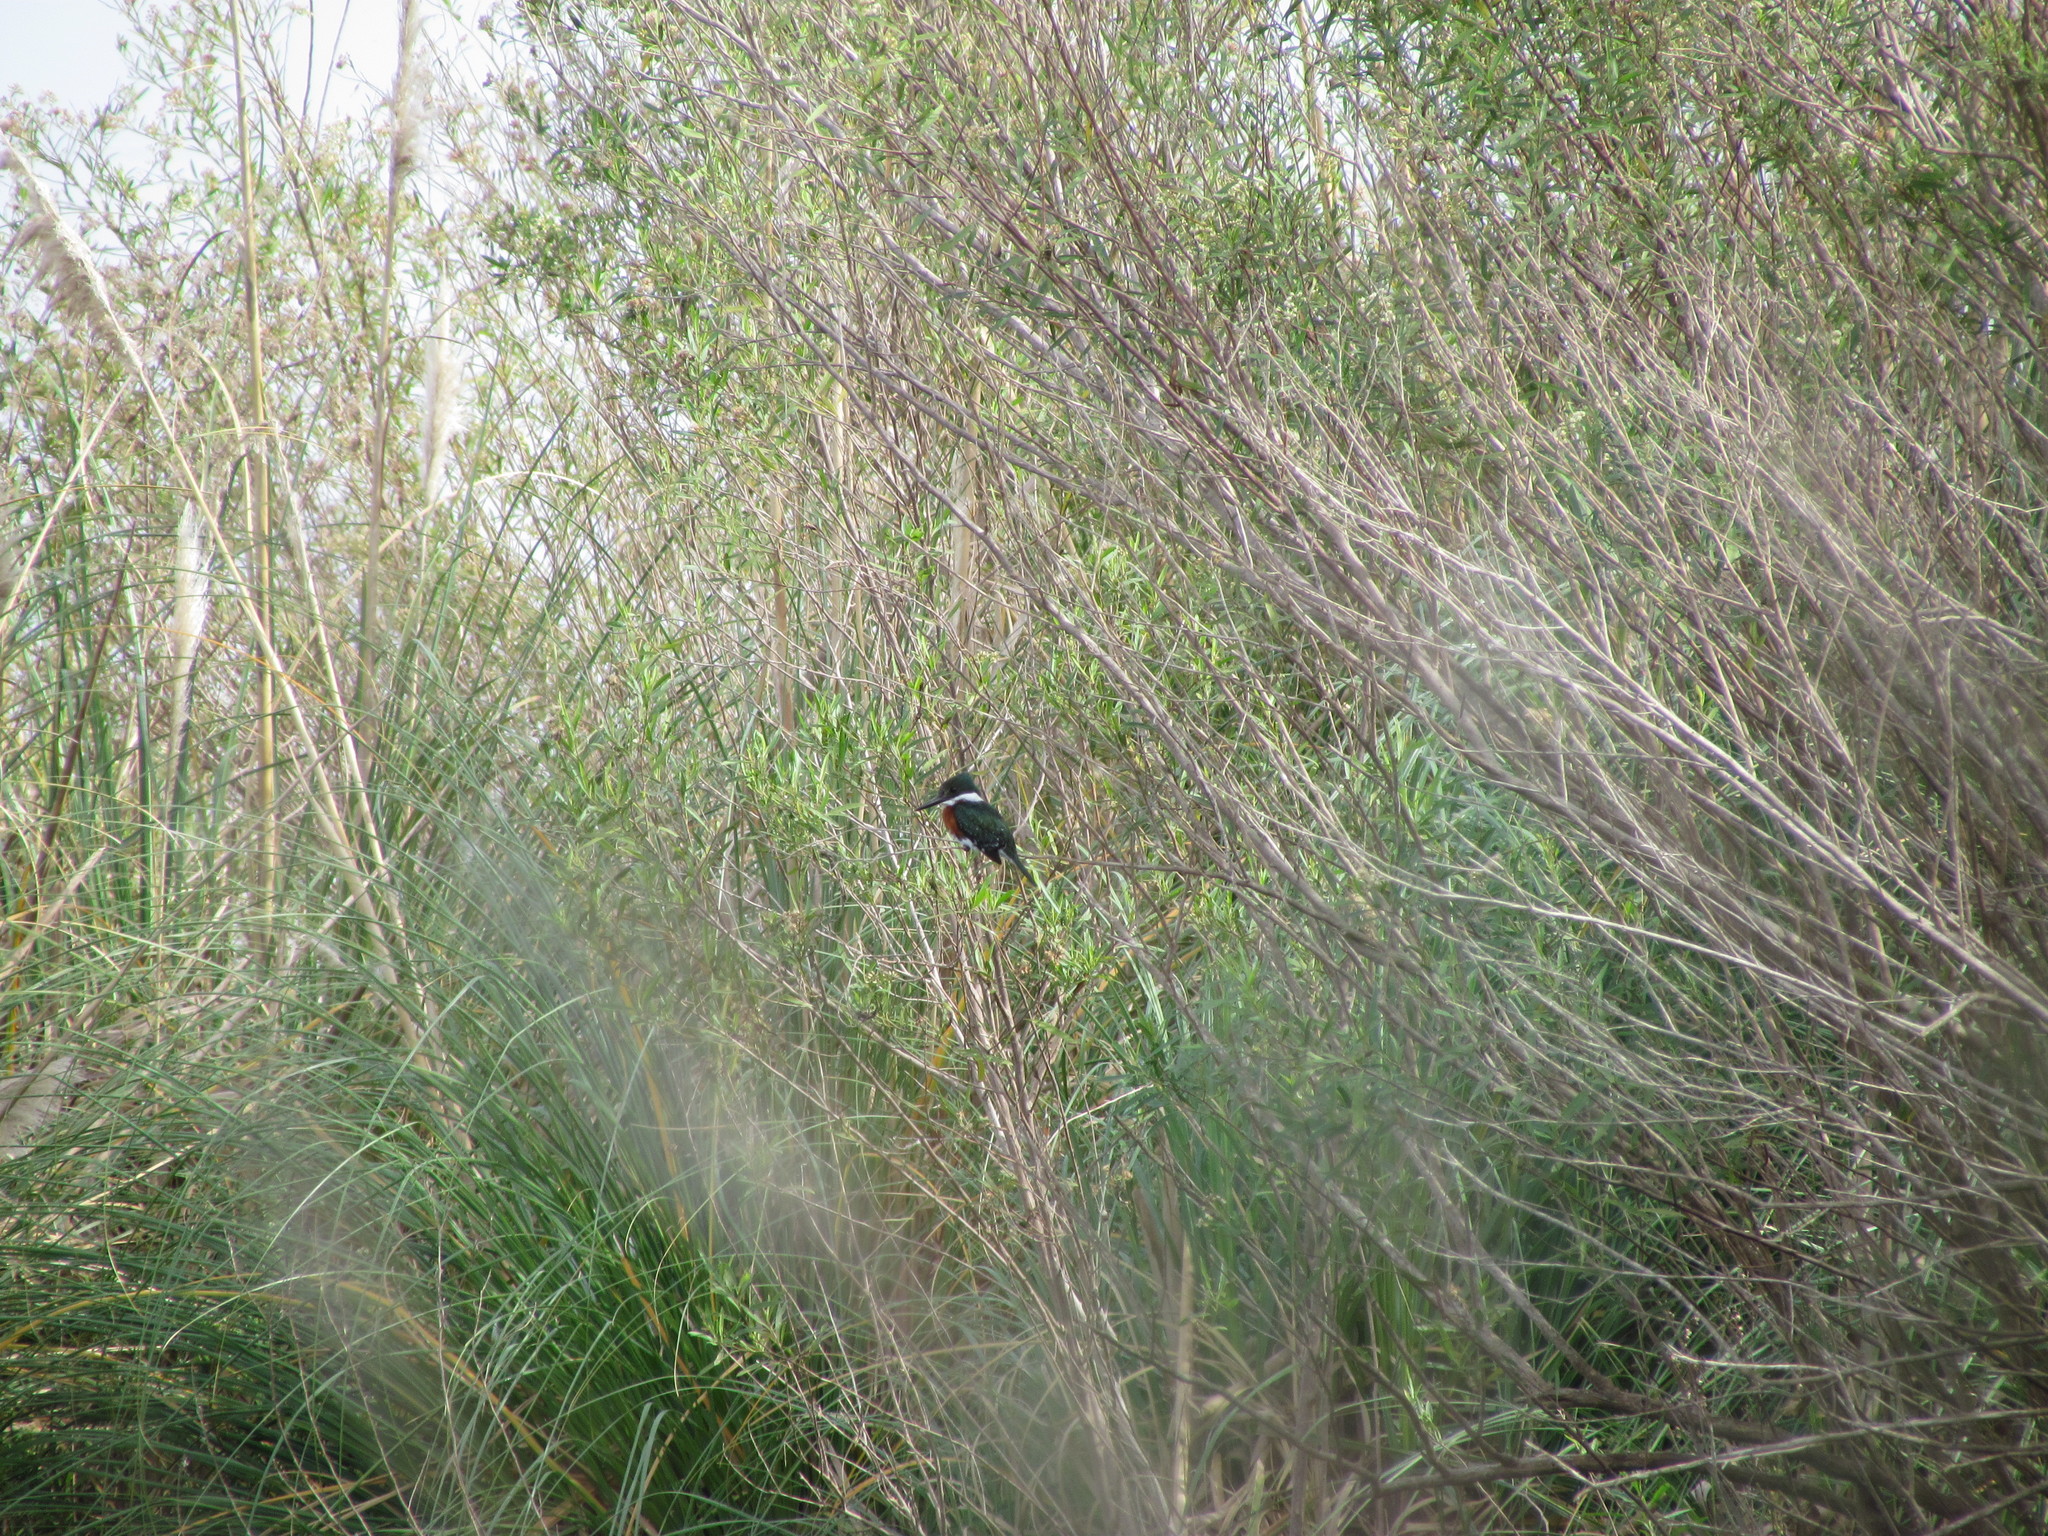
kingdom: Animalia
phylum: Chordata
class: Aves
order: Coraciiformes
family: Alcedinidae
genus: Chloroceryle
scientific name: Chloroceryle americana
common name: Green kingfisher
